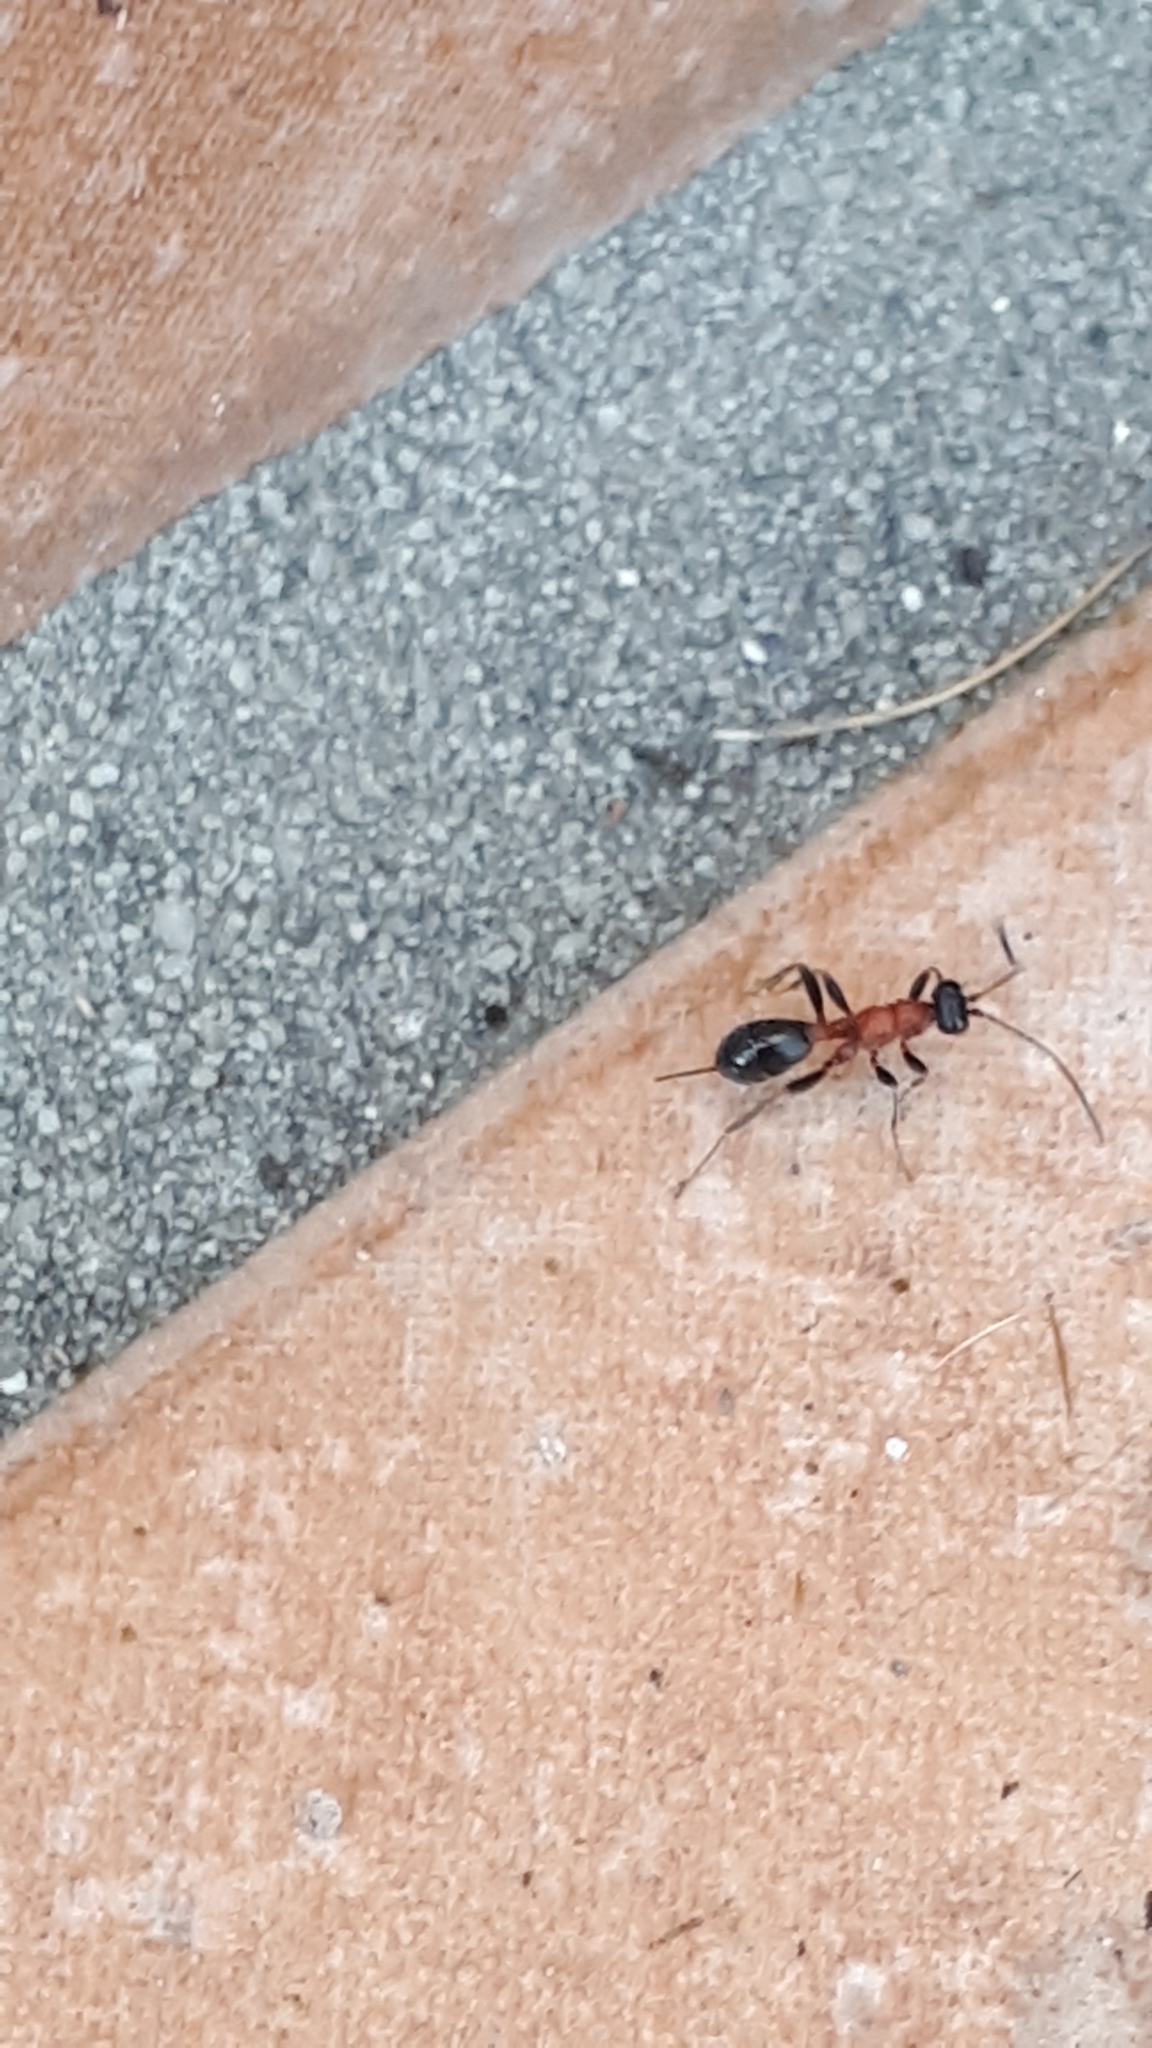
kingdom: Animalia
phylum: Arthropoda
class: Insecta
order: Hymenoptera
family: Ichneumonidae
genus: Thaumatogelis
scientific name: Thaumatogelis gallicus
